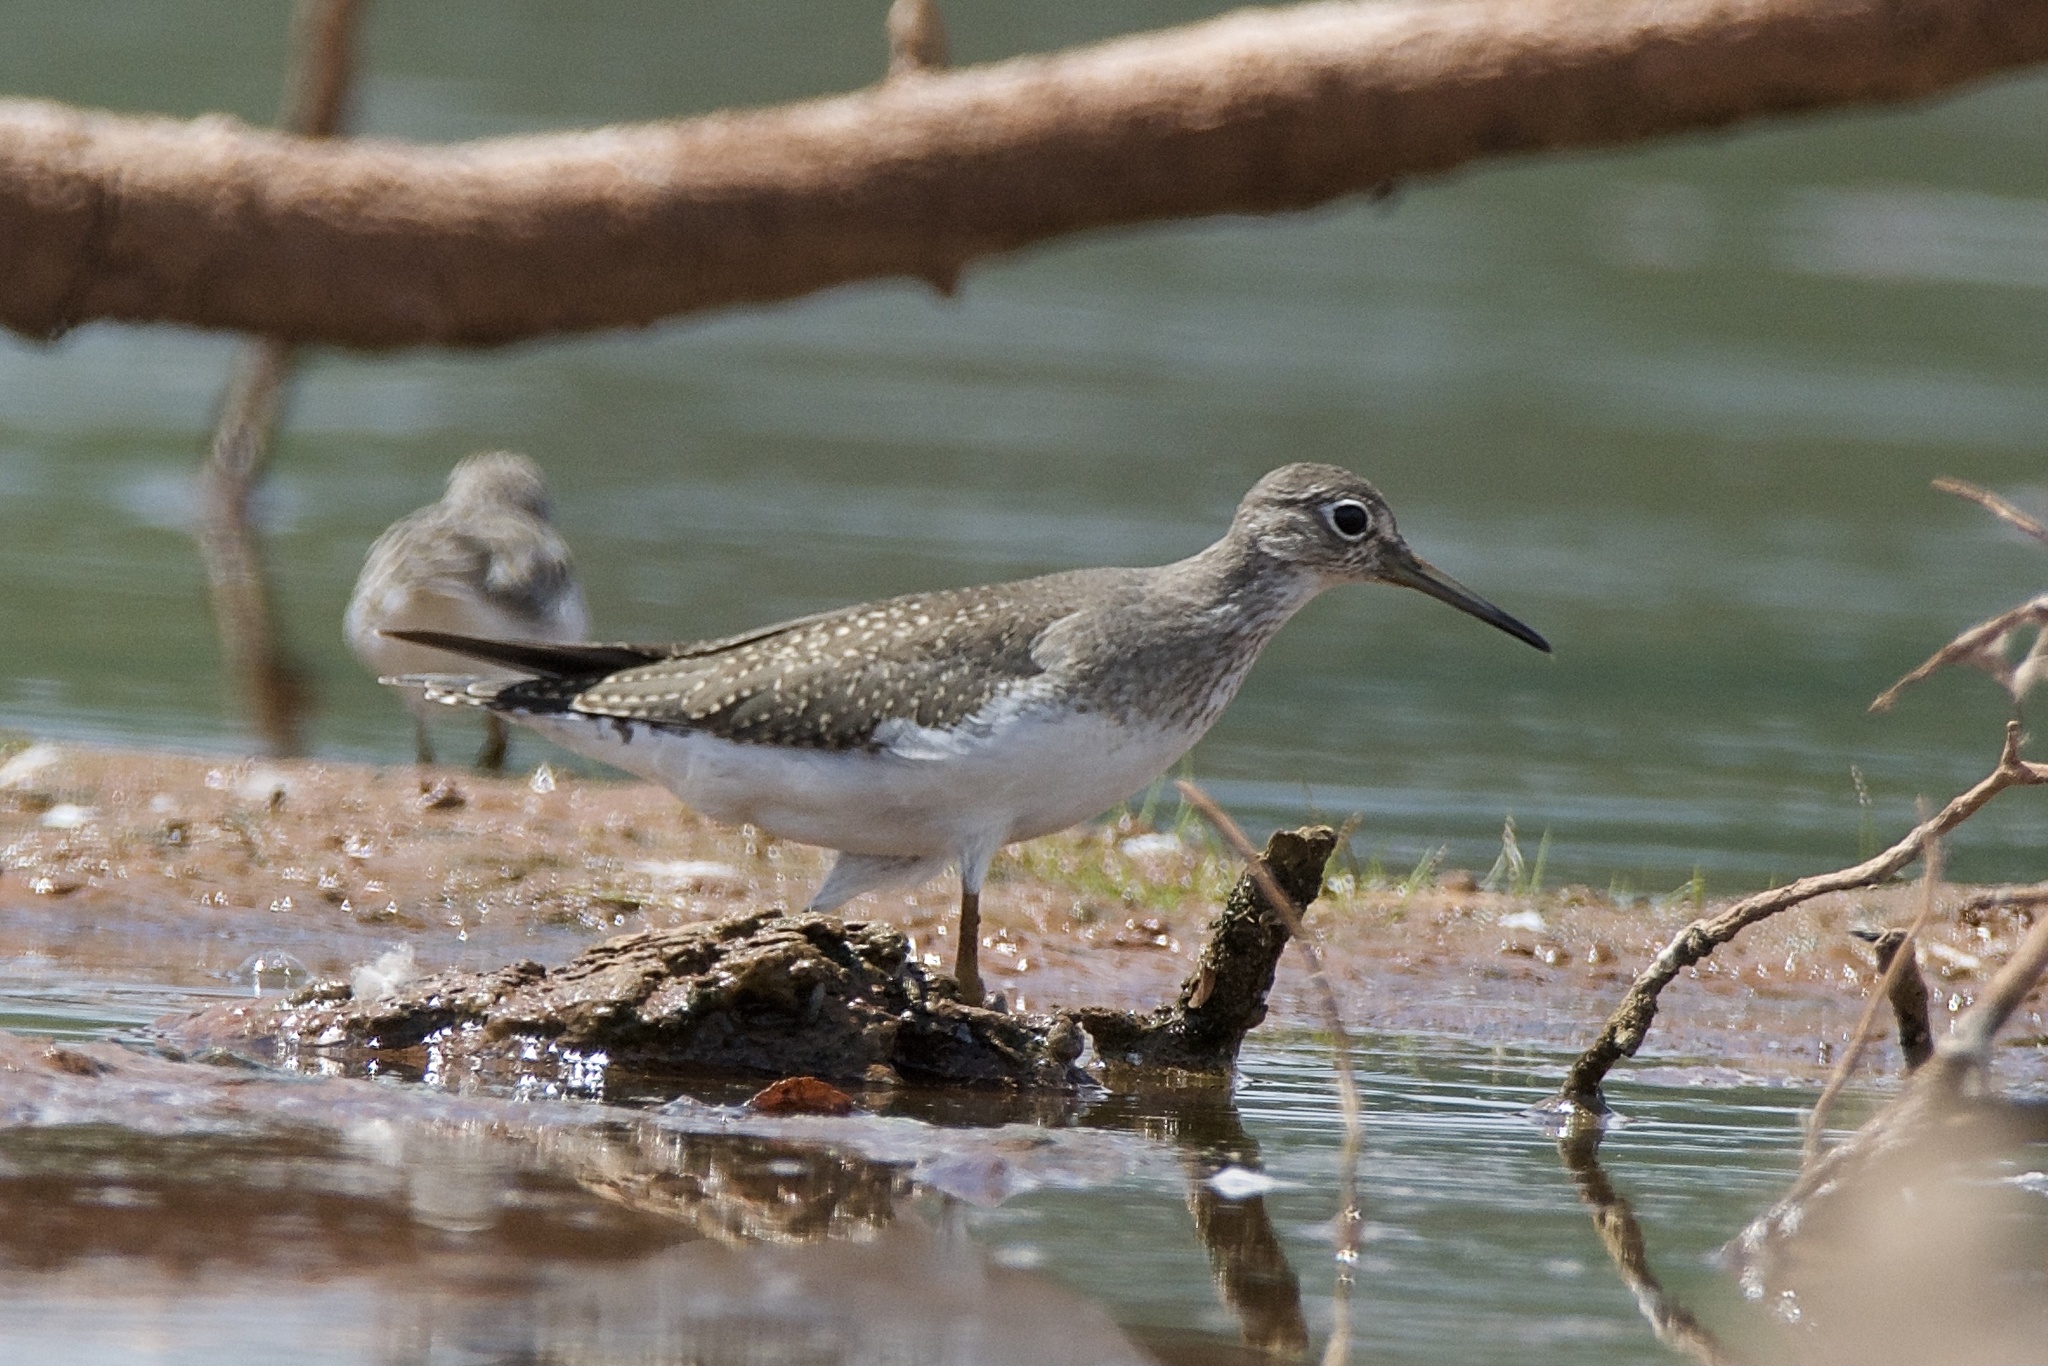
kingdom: Animalia
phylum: Chordata
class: Aves
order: Charadriiformes
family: Scolopacidae
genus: Tringa
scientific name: Tringa solitaria
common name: Solitary sandpiper
